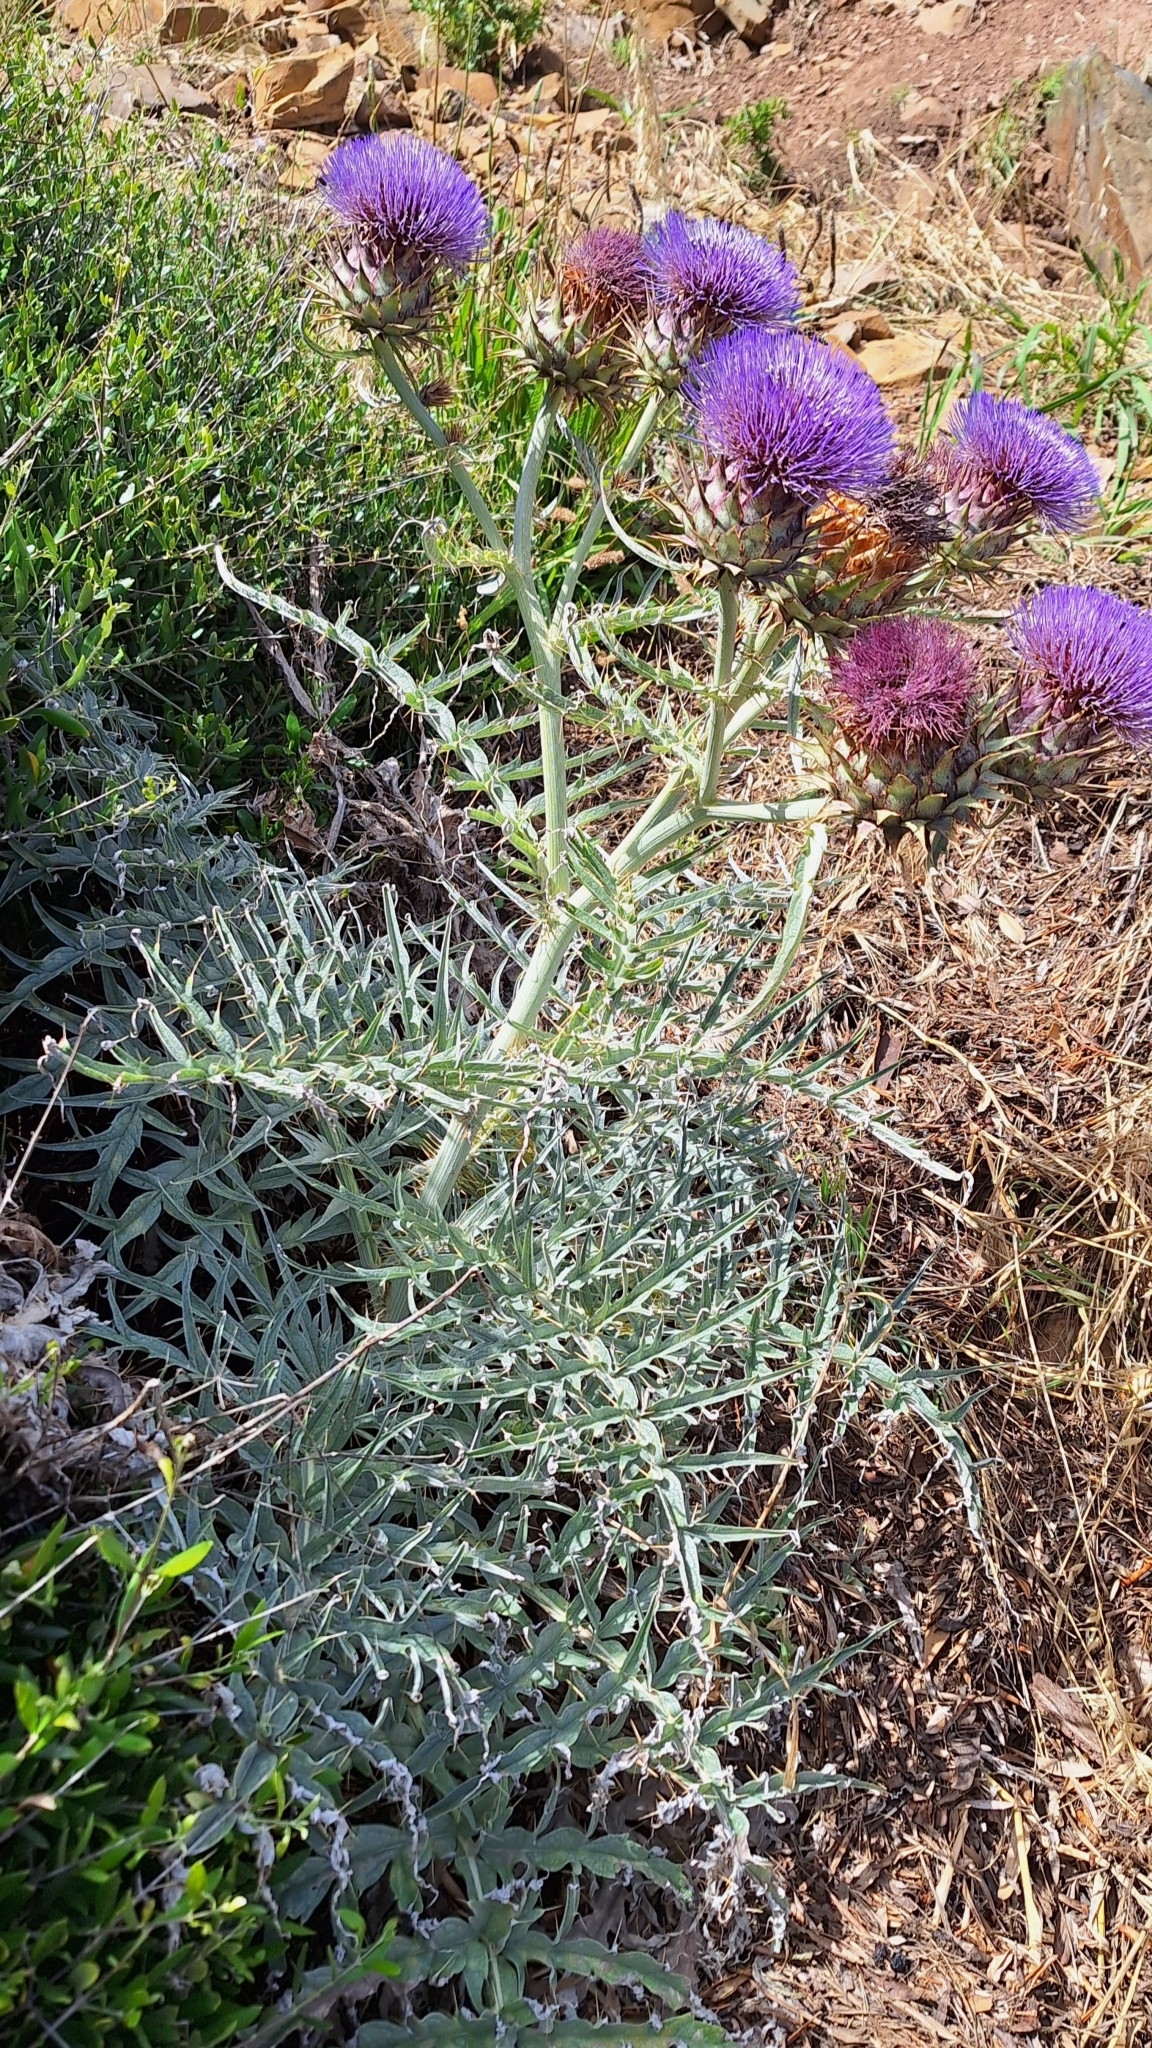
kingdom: Plantae
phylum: Tracheophyta
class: Magnoliopsida
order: Asterales
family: Asteraceae
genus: Cynara
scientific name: Cynara cardunculus
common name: Globe artichoke
